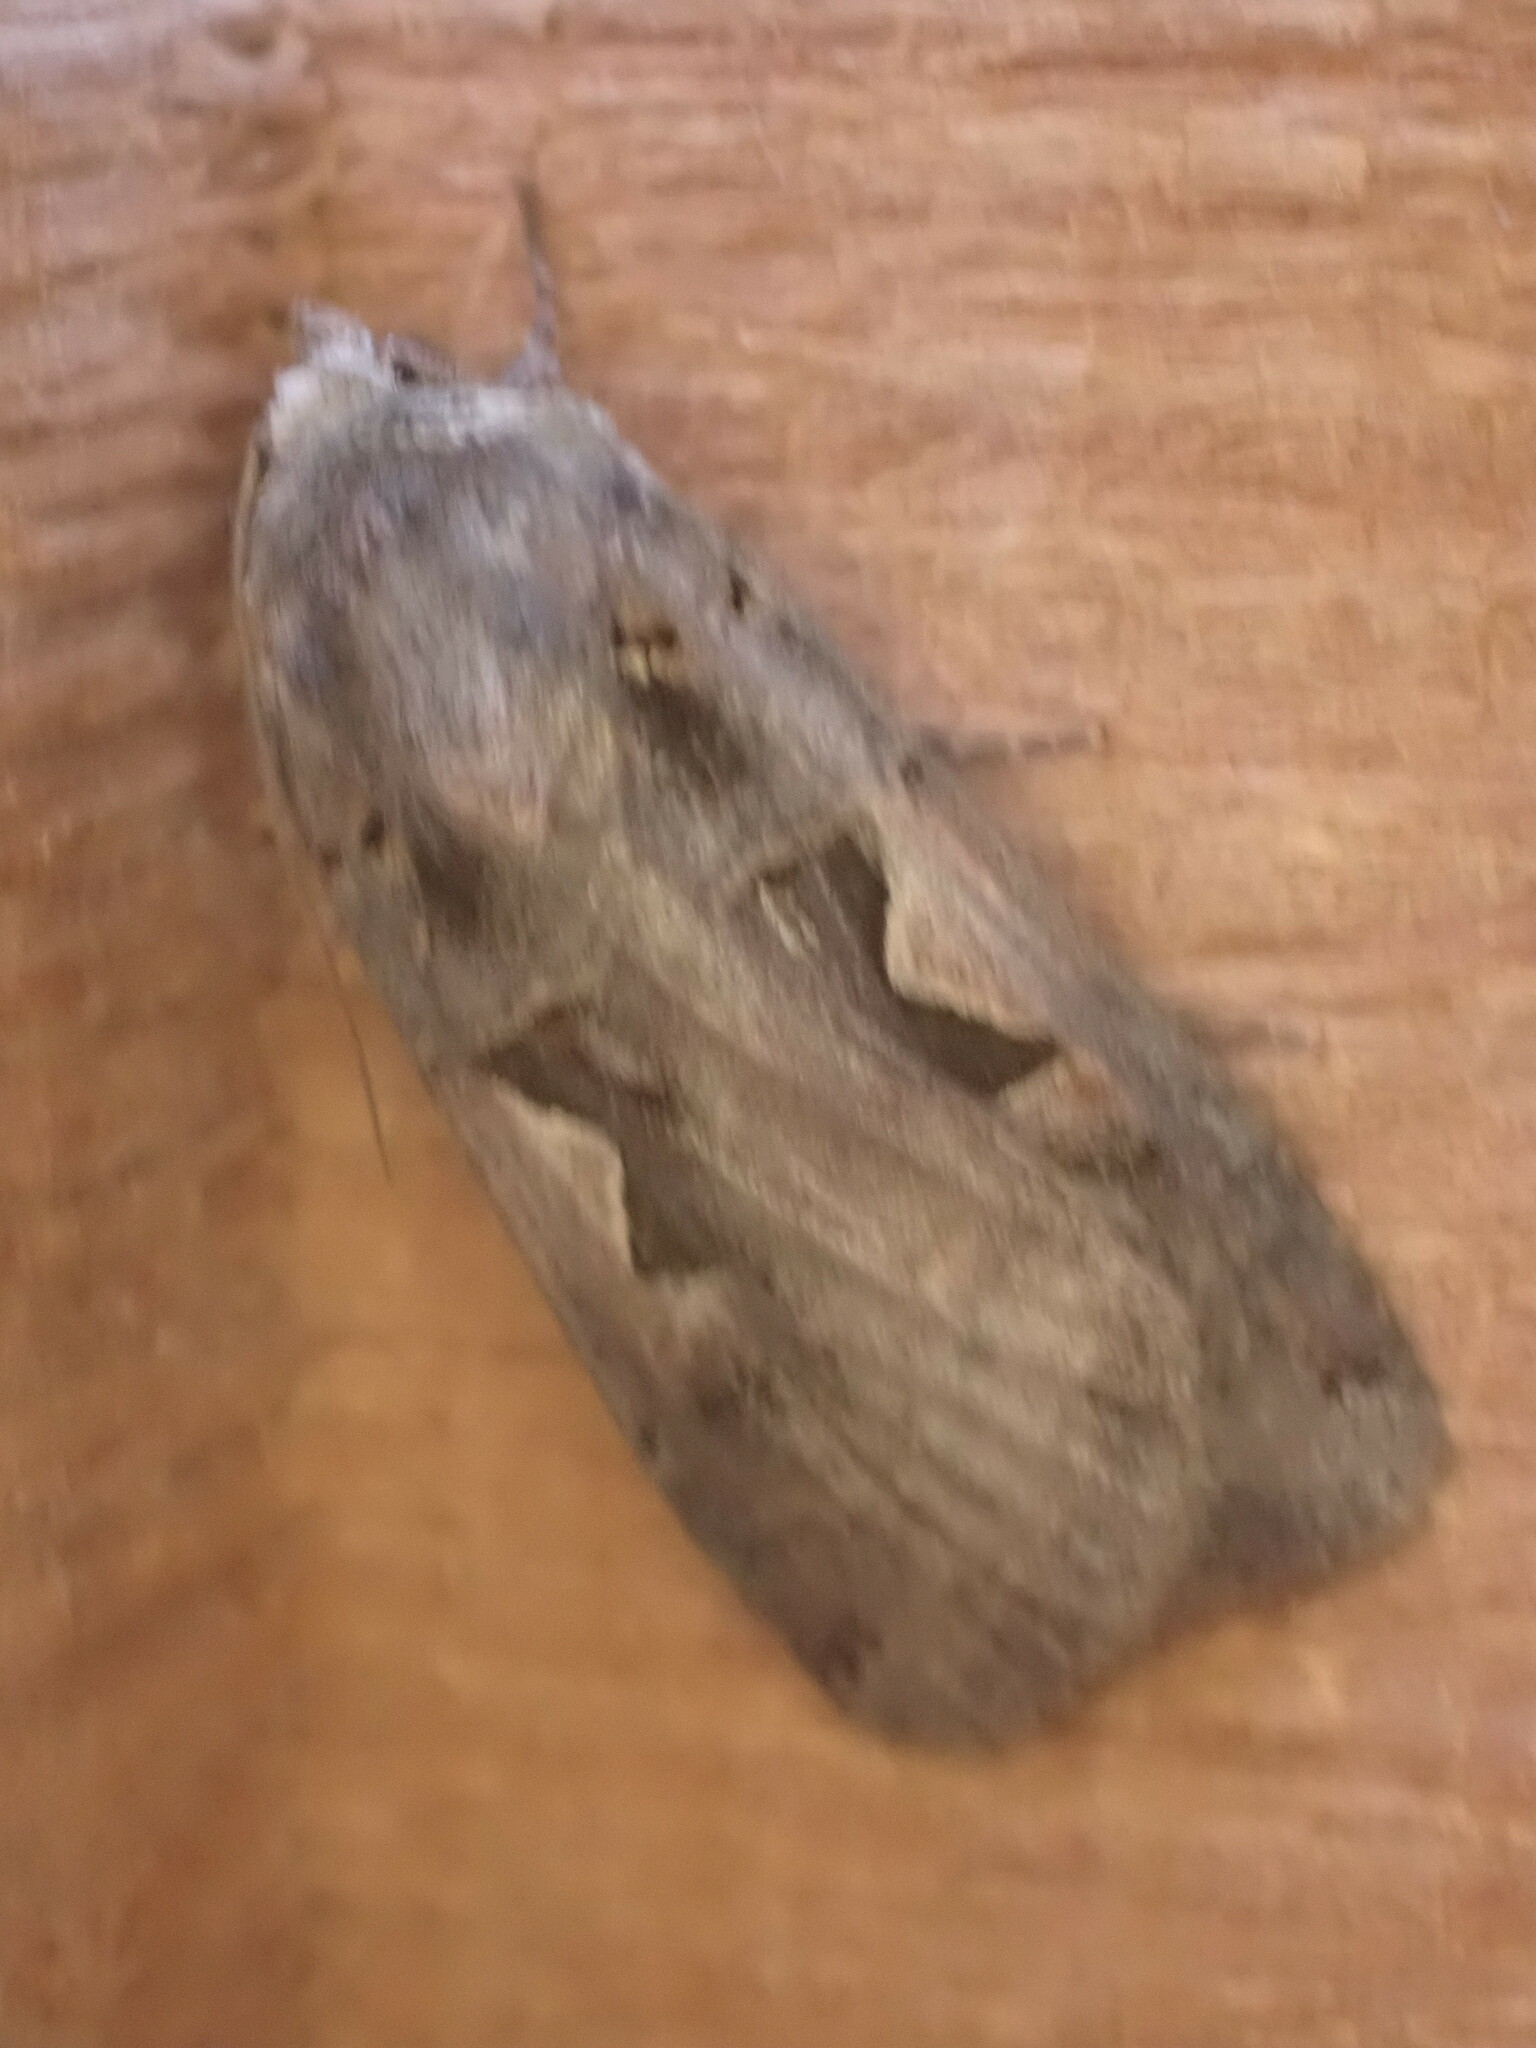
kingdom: Animalia
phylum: Arthropoda
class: Insecta
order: Lepidoptera
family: Noctuidae
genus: Xestia
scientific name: Xestia c-nigrum
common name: Setaceous hebrew character
